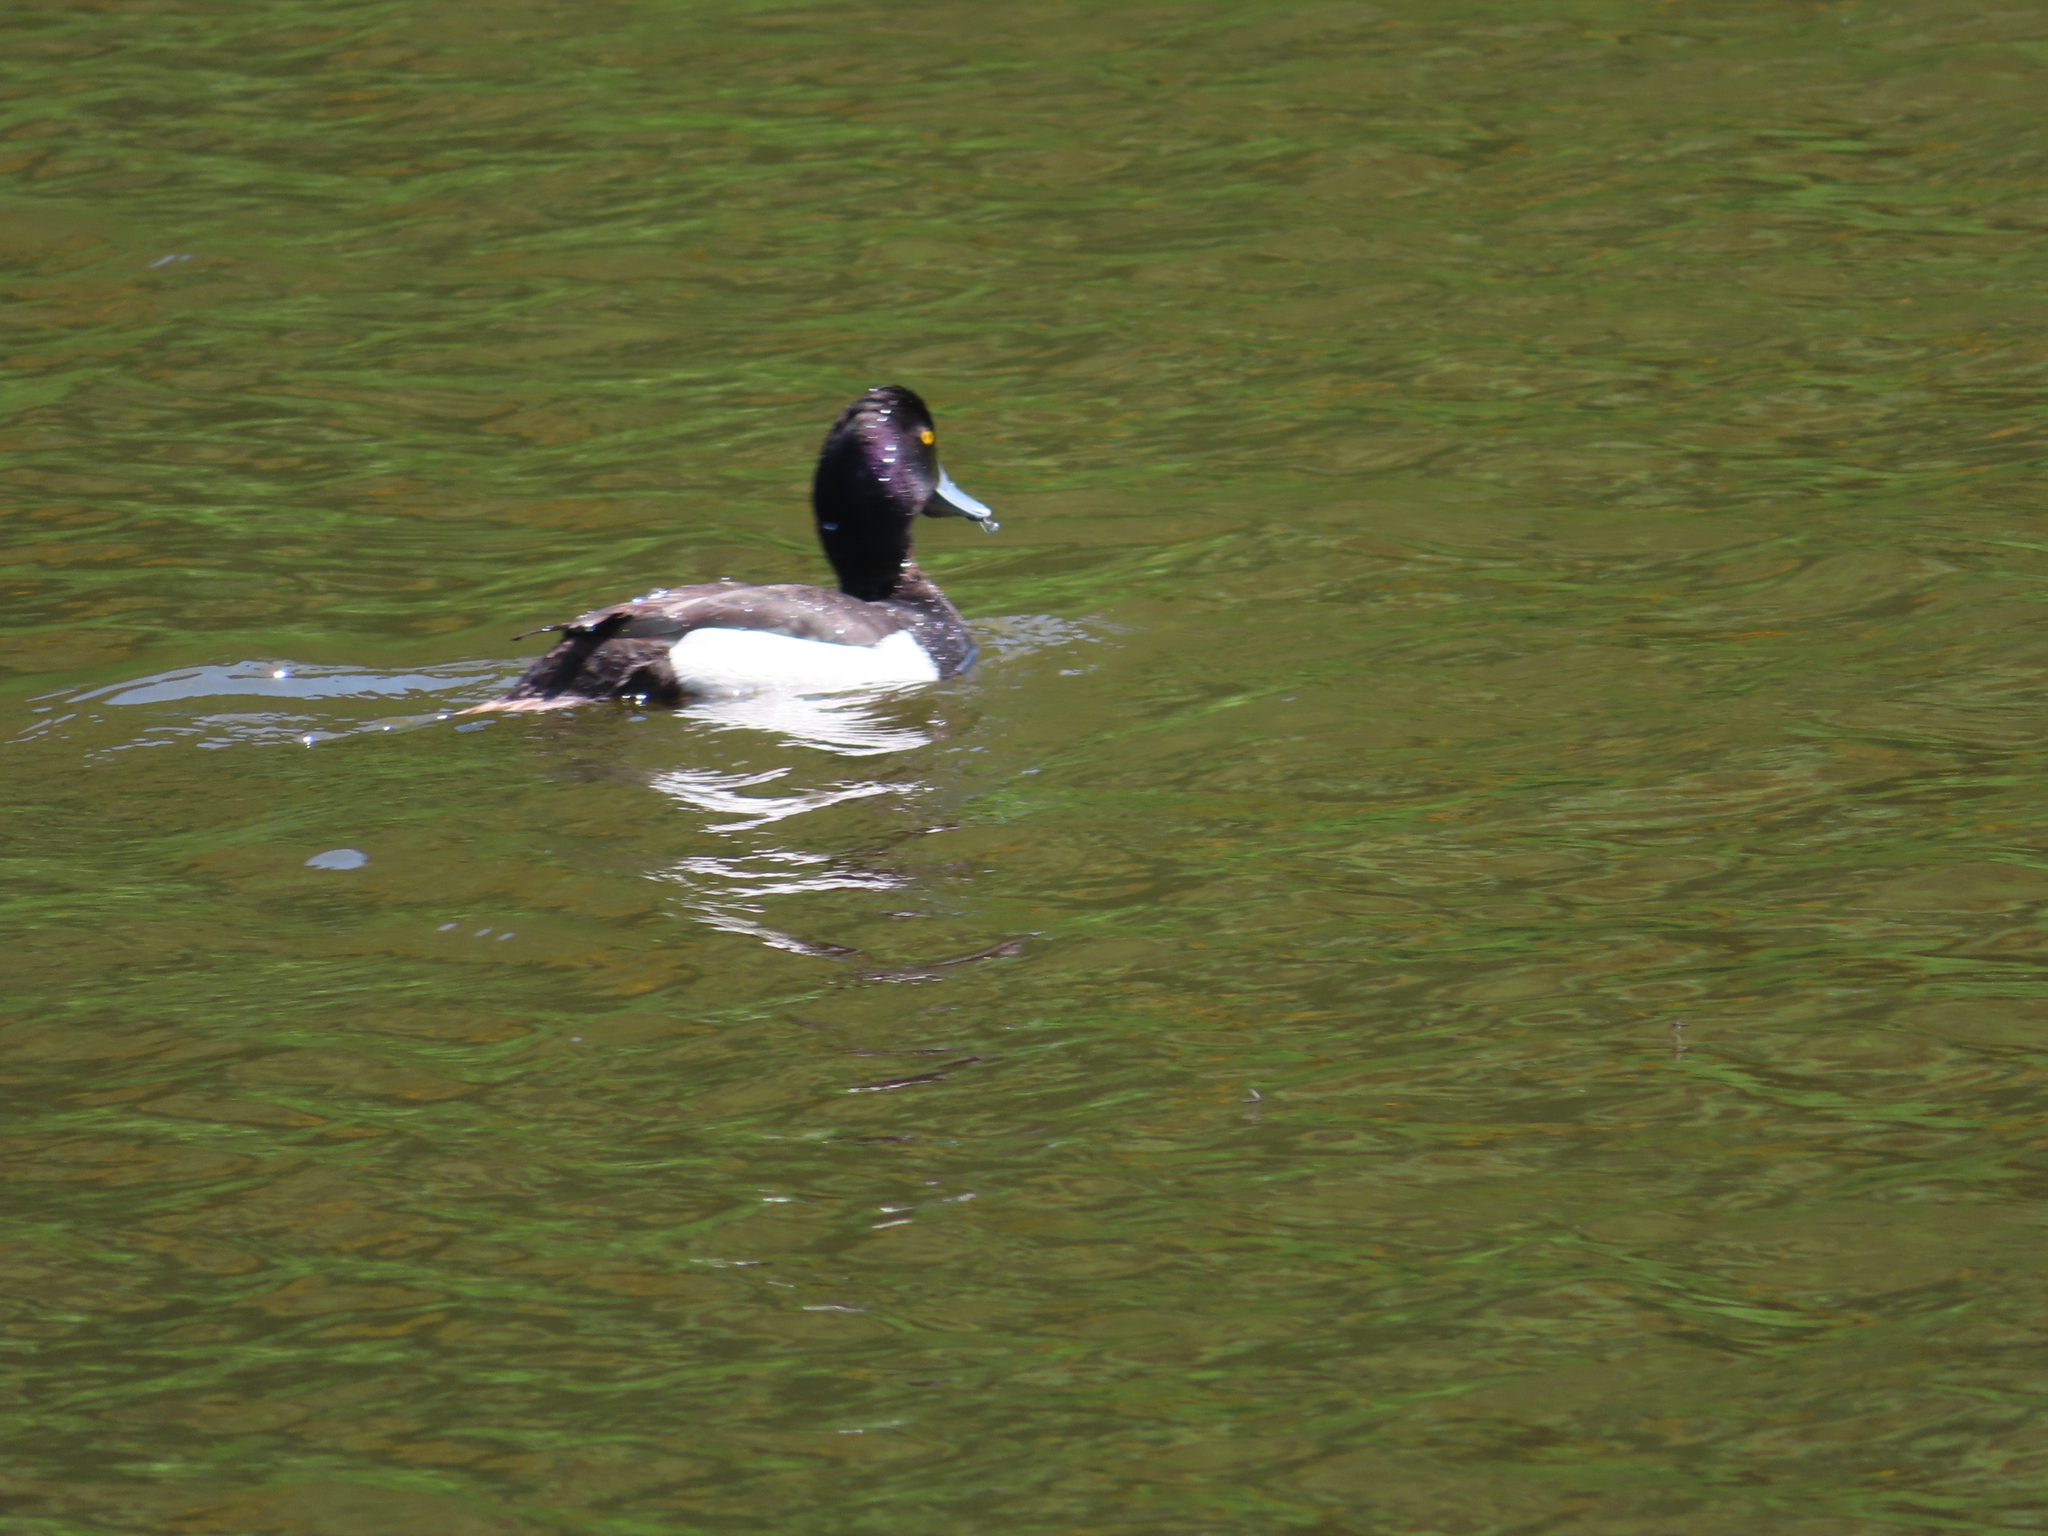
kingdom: Animalia
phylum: Chordata
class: Aves
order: Anseriformes
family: Anatidae
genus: Aythya
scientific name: Aythya fuligula
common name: Tufted duck
